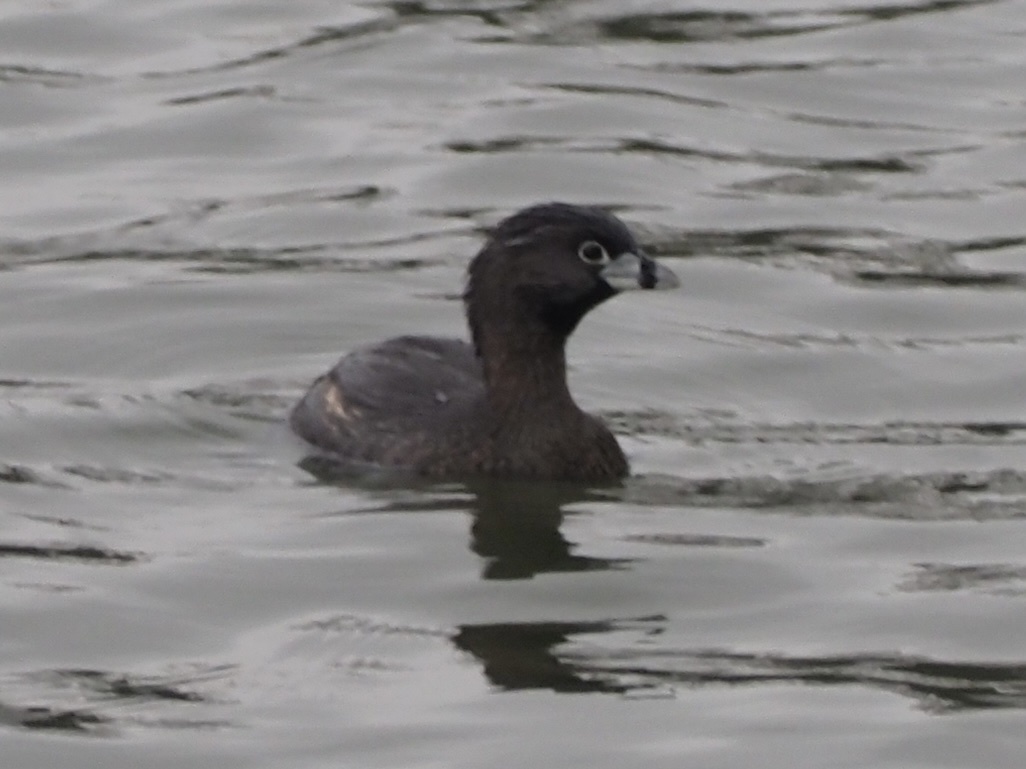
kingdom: Animalia
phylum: Chordata
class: Aves
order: Podicipediformes
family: Podicipedidae
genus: Podilymbus
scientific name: Podilymbus podiceps
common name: Pied-billed grebe
